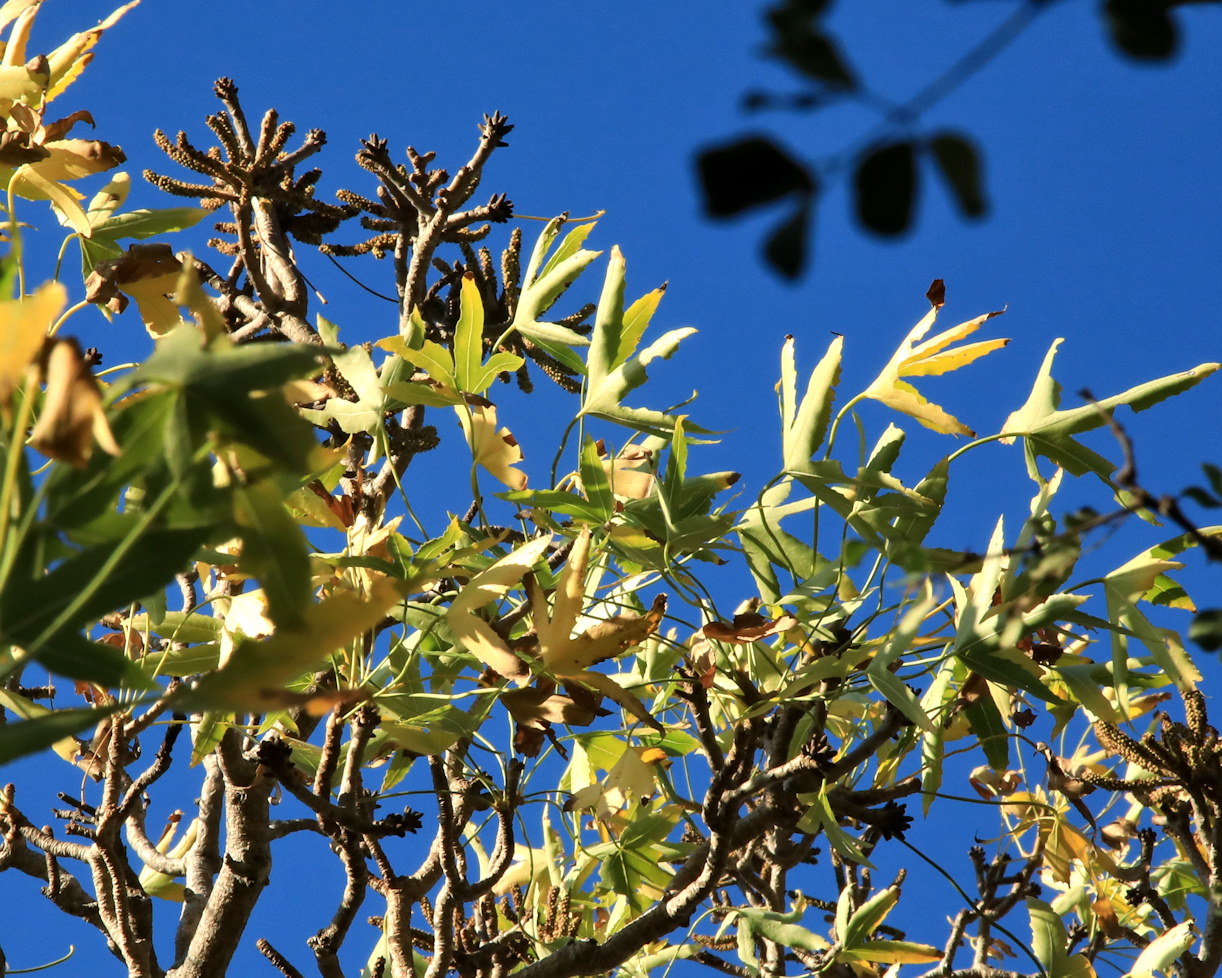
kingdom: Plantae
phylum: Tracheophyta
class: Magnoliopsida
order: Apiales
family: Araliaceae
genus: Cussonia
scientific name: Cussonia natalensis
